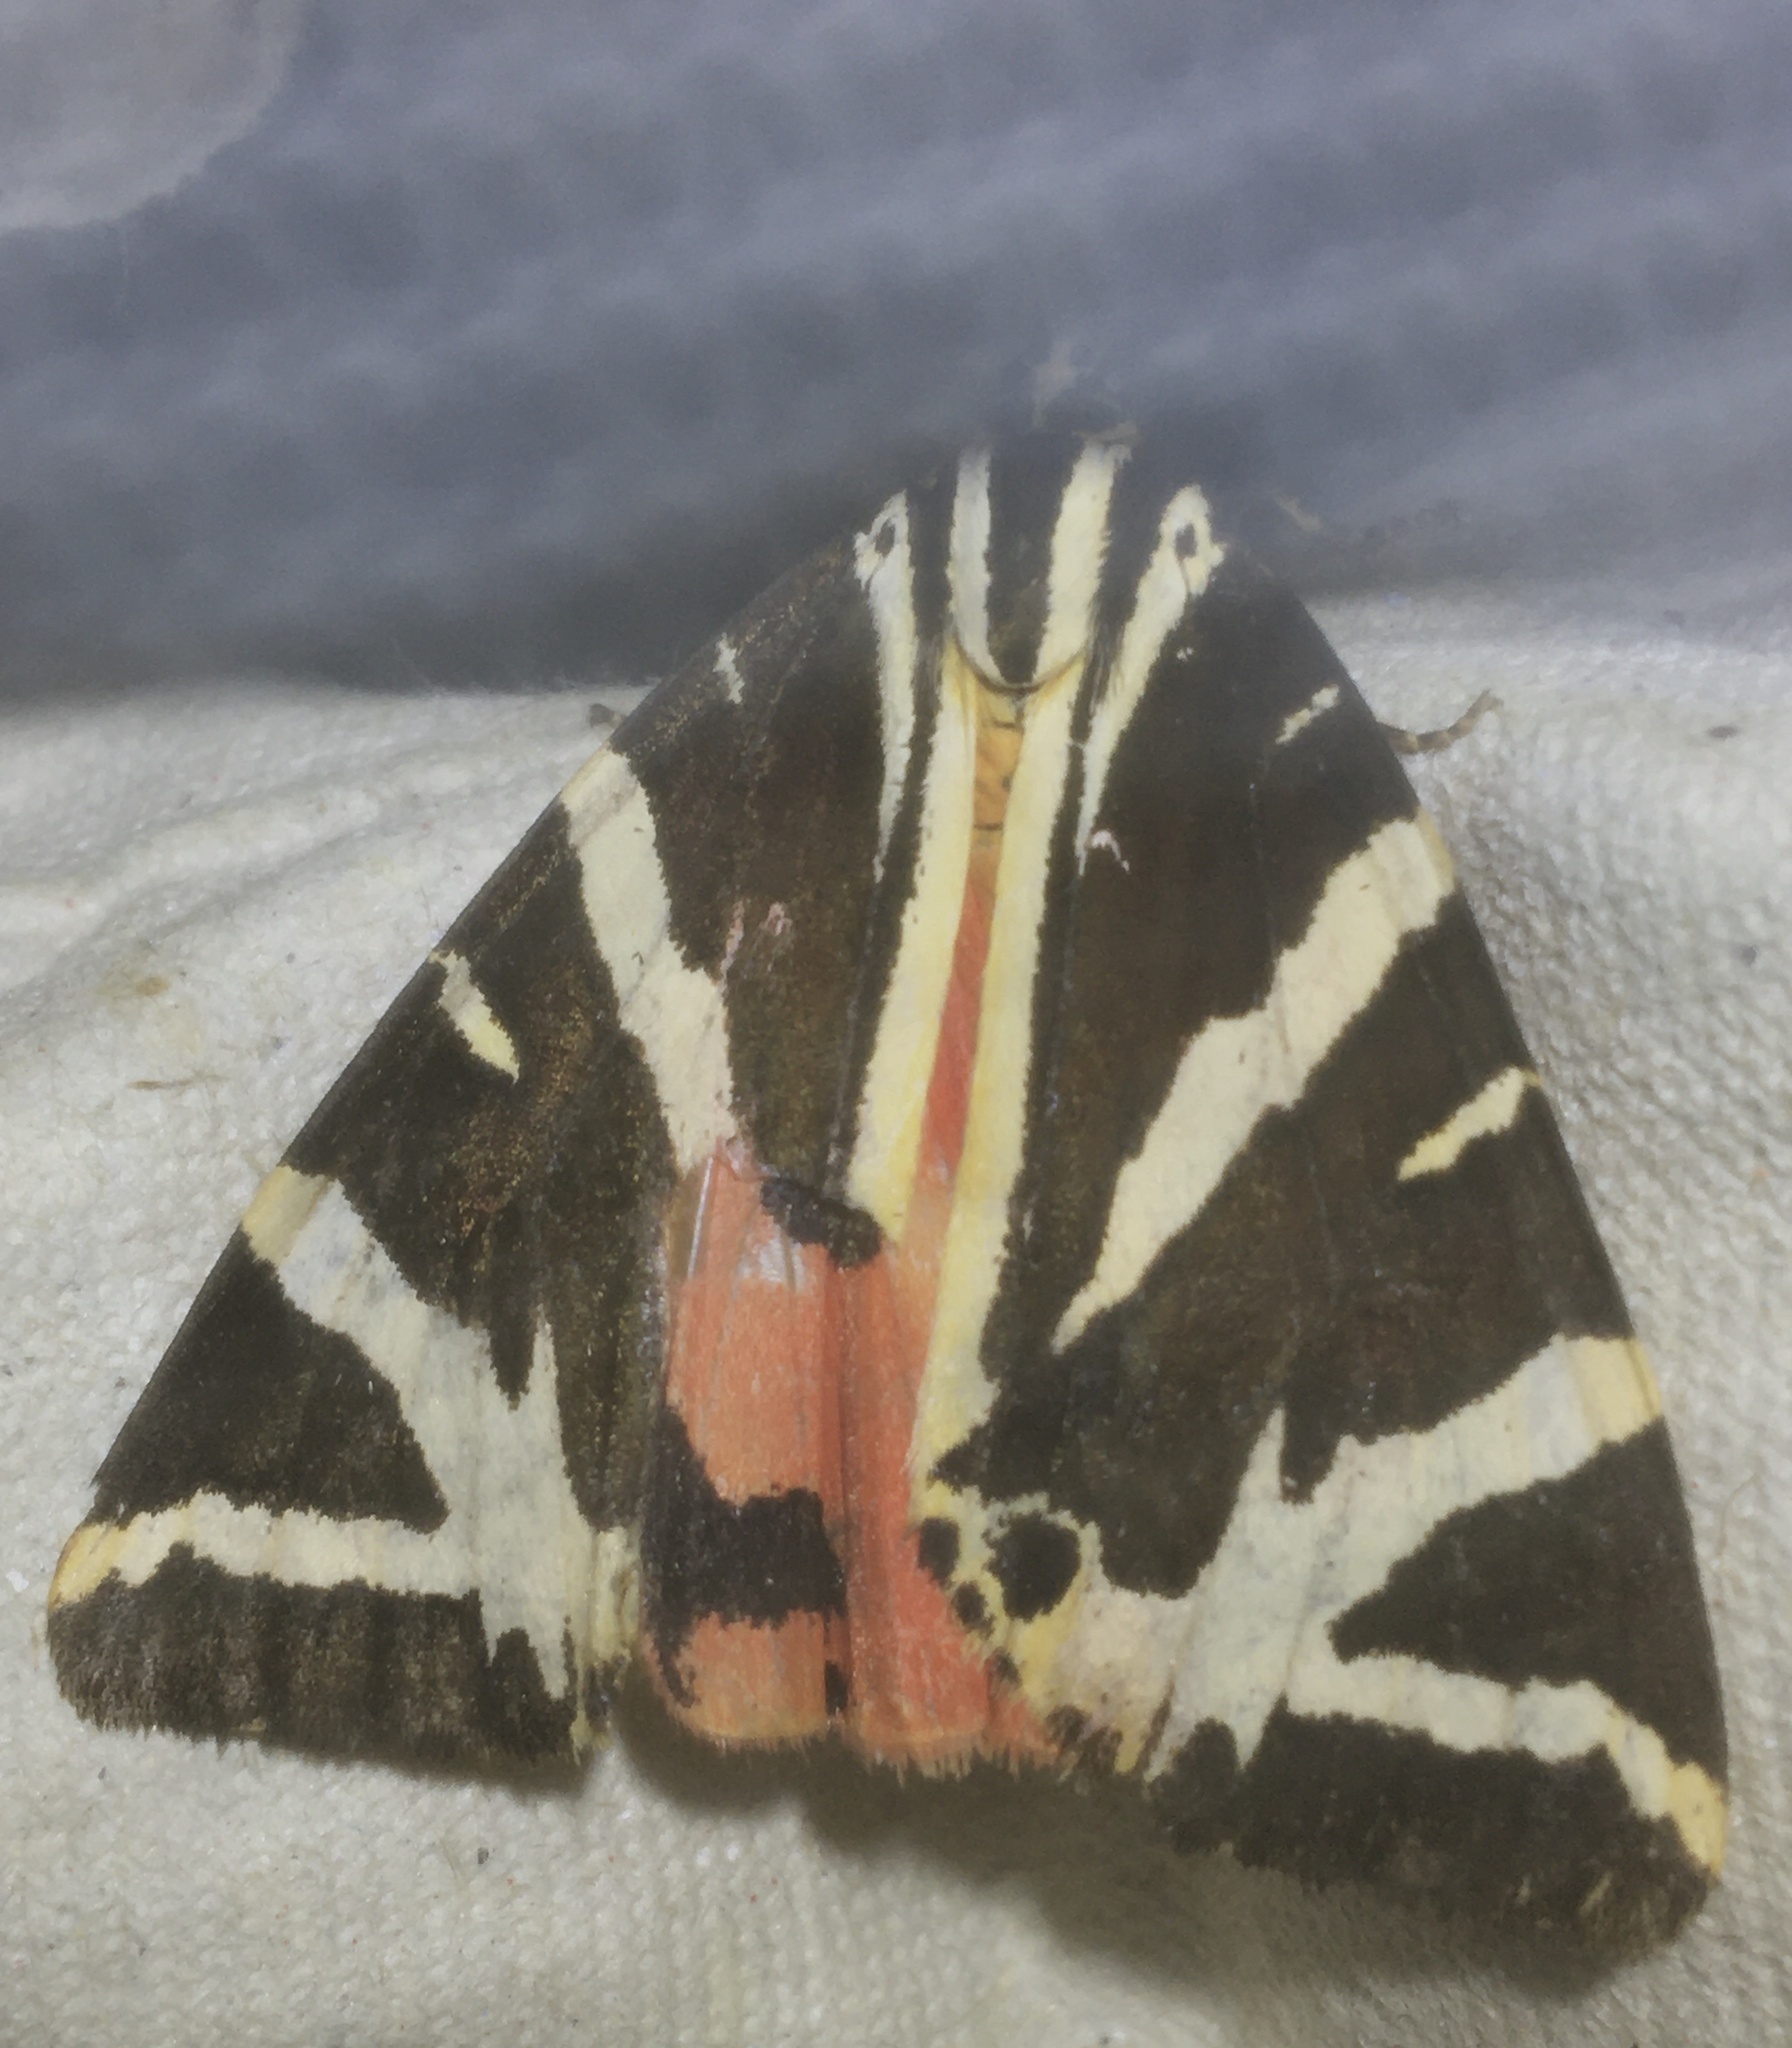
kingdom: Animalia
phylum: Arthropoda
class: Insecta
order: Lepidoptera
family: Erebidae
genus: Euplagia
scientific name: Euplagia quadripunctaria
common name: Jersey tiger
